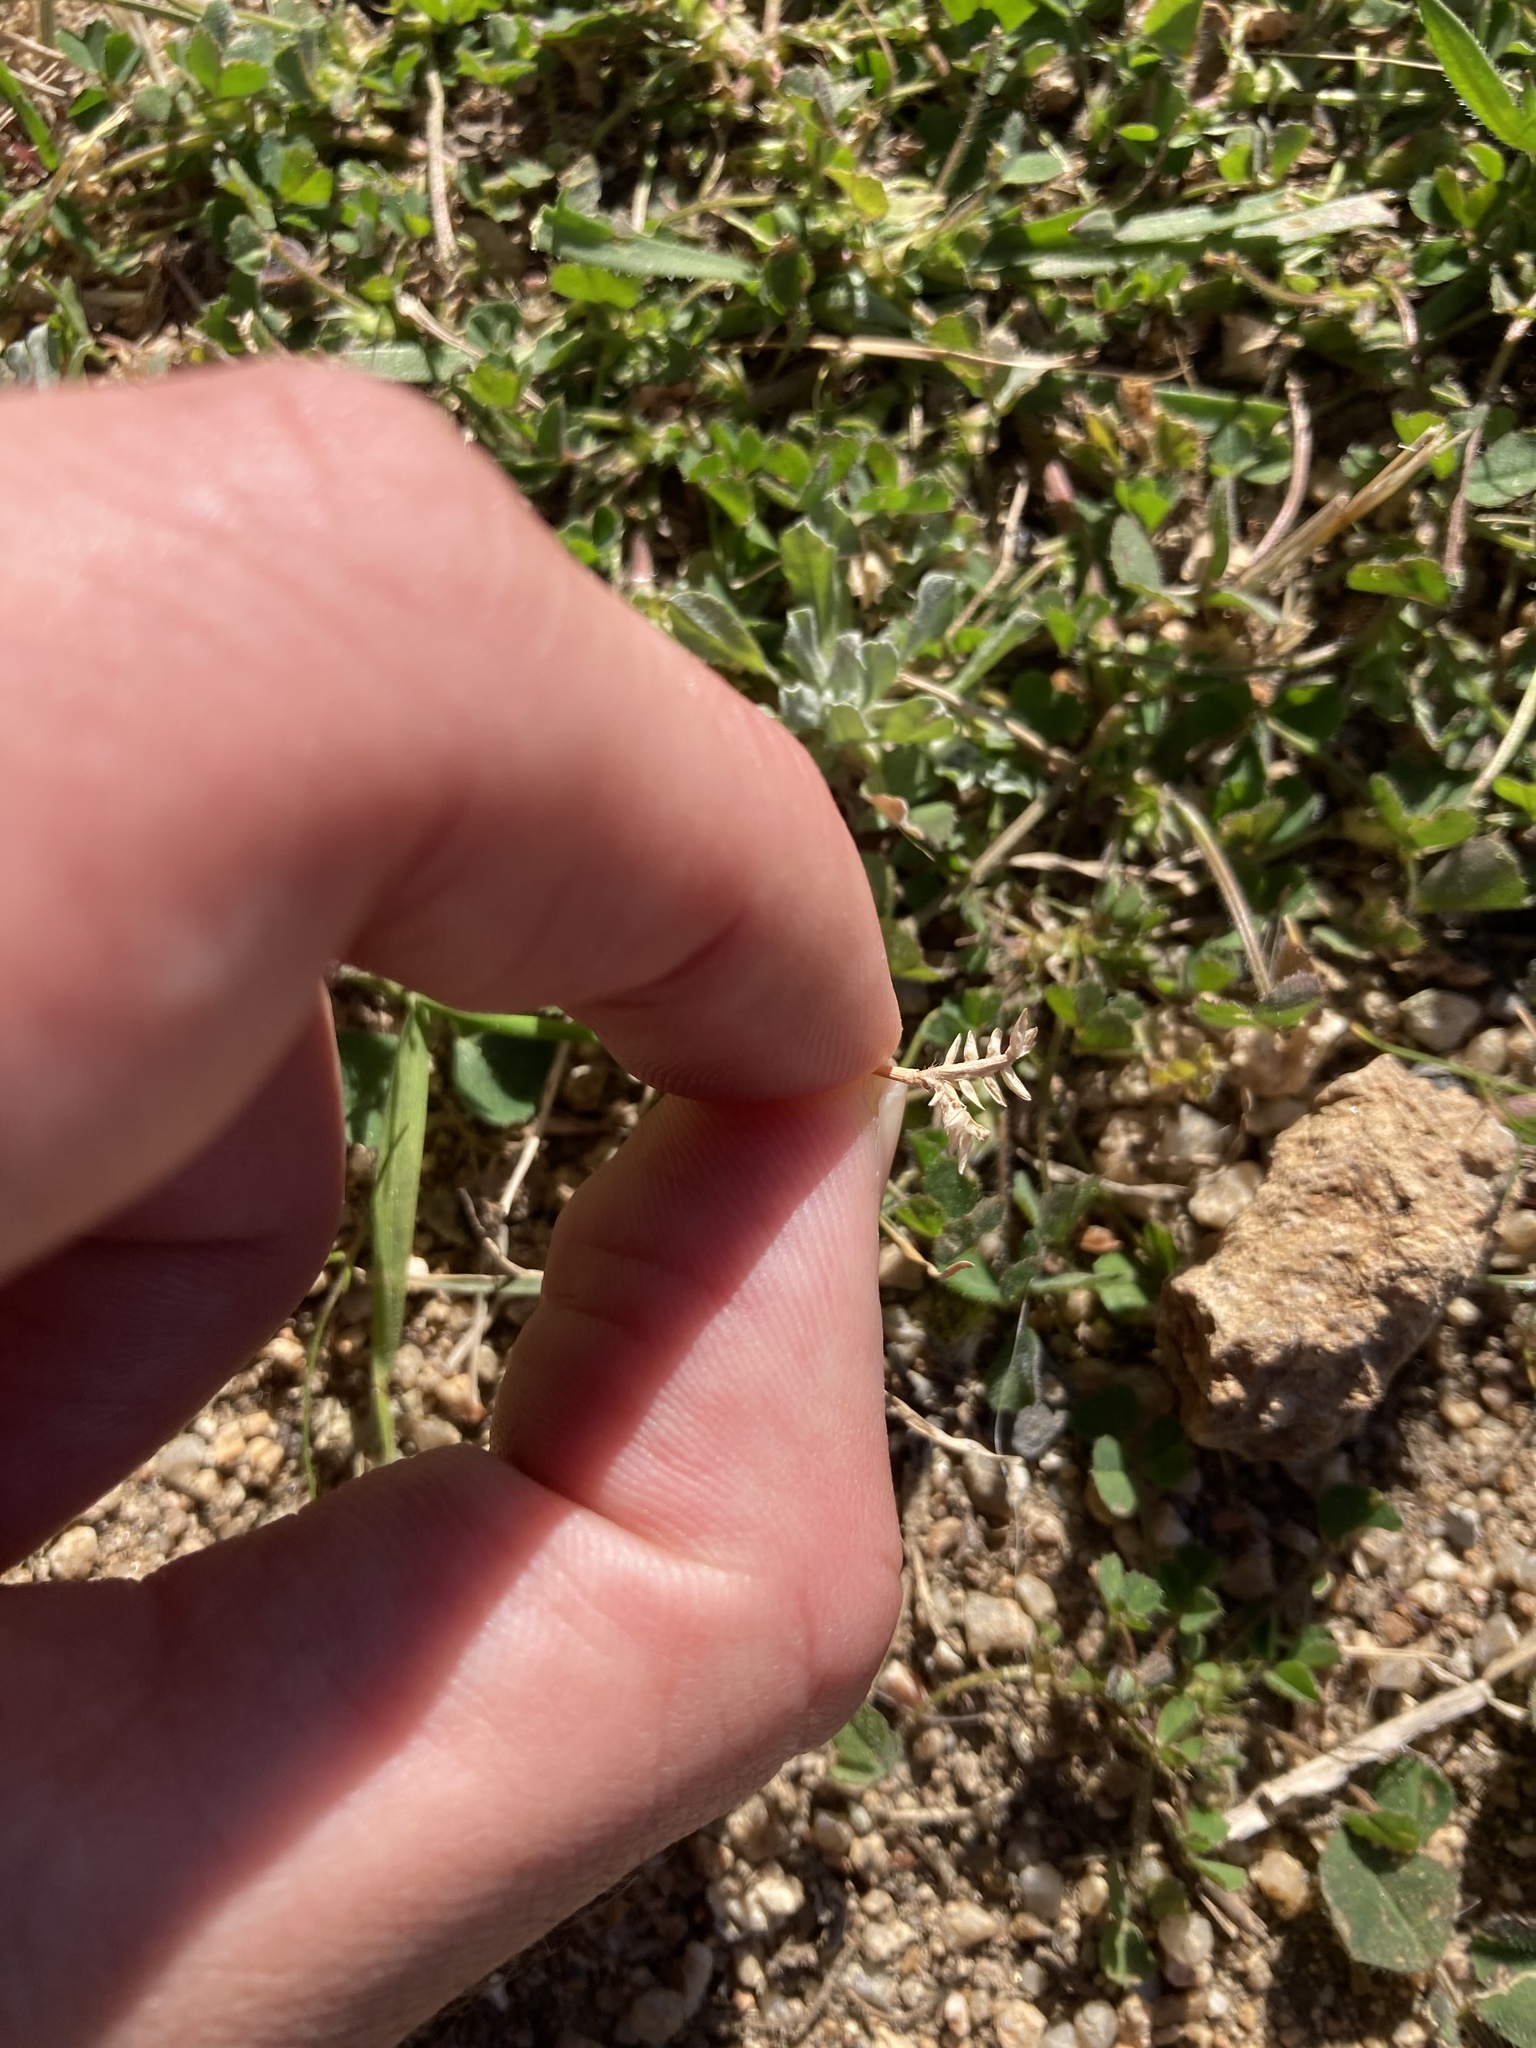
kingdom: Plantae
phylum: Tracheophyta
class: Liliopsida
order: Poales
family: Poaceae
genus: Eleusine
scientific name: Eleusine tristachya
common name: American yard-grass
